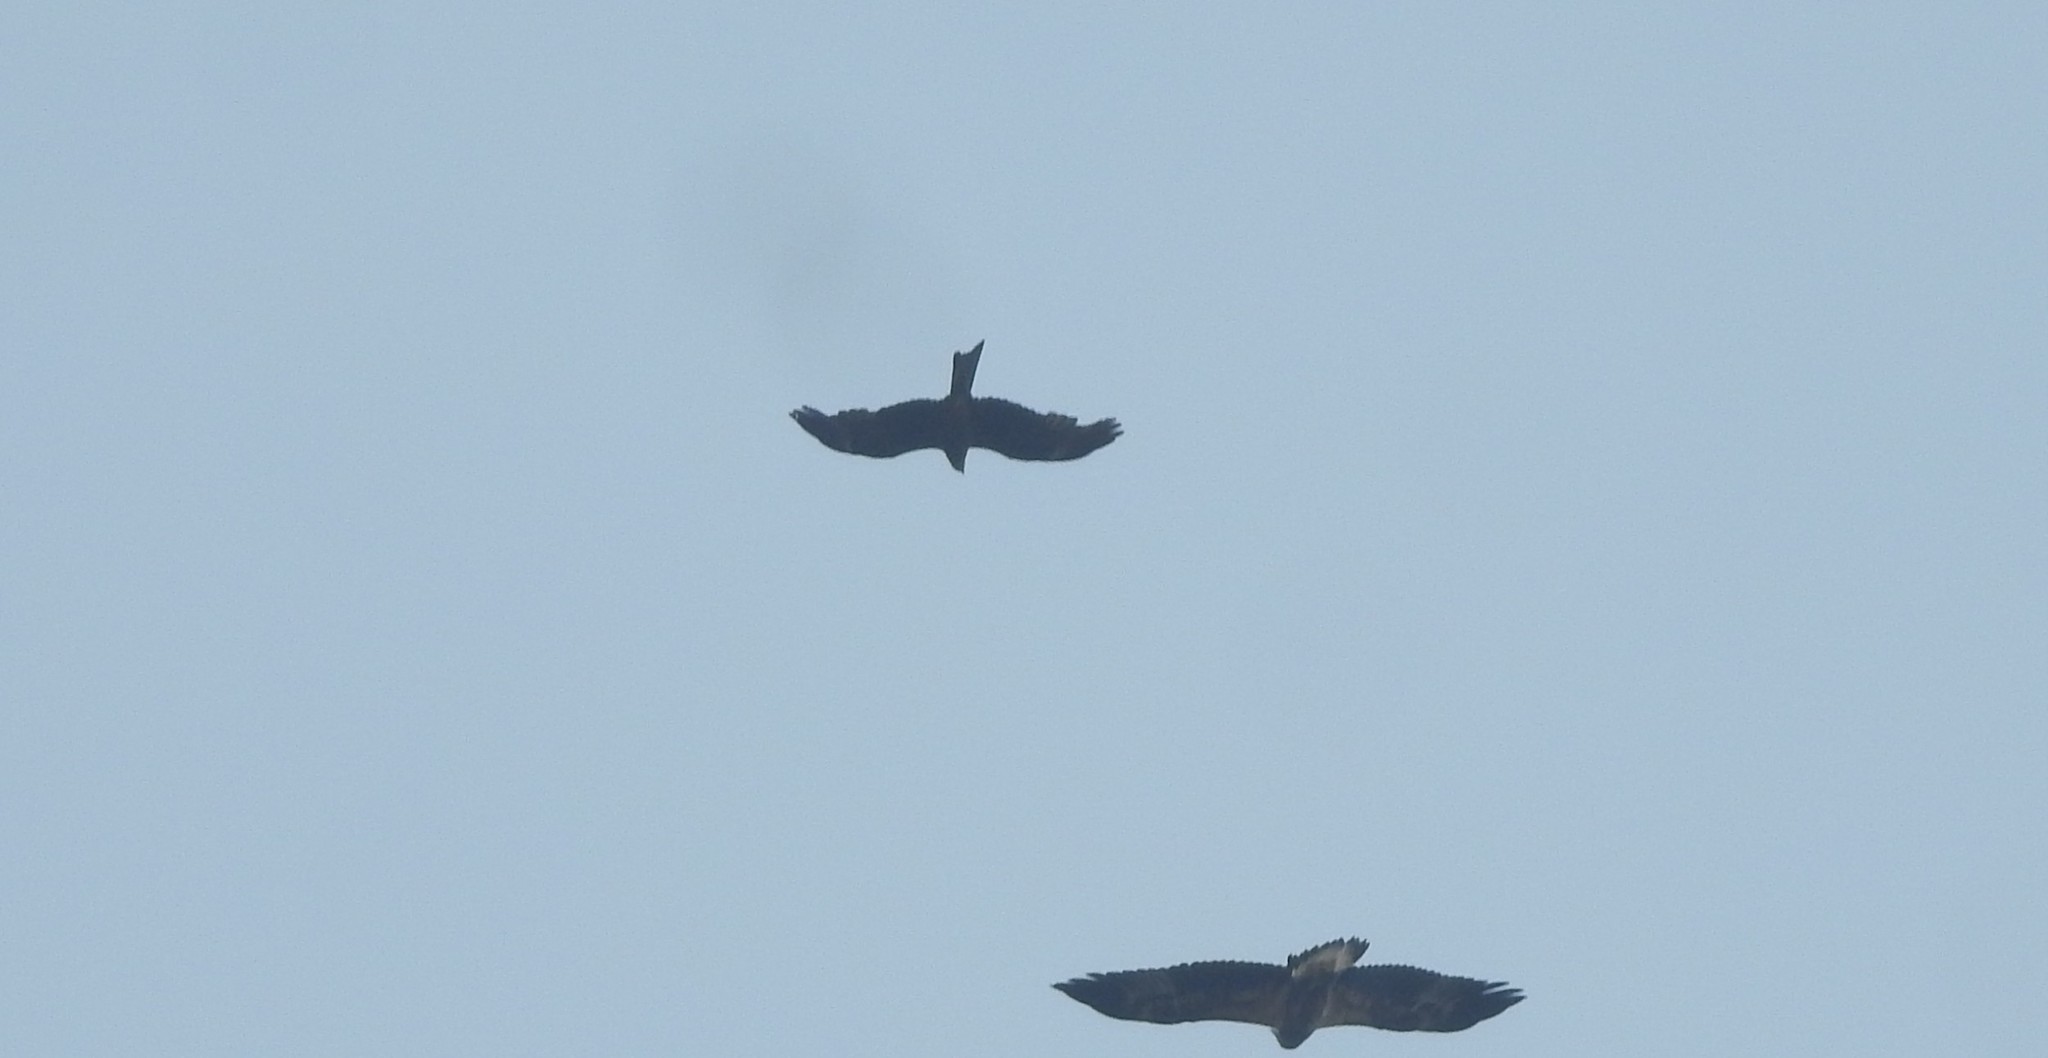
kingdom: Animalia
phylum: Chordata
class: Aves
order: Accipitriformes
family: Accipitridae
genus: Milvus
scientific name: Milvus migrans
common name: Black kite
